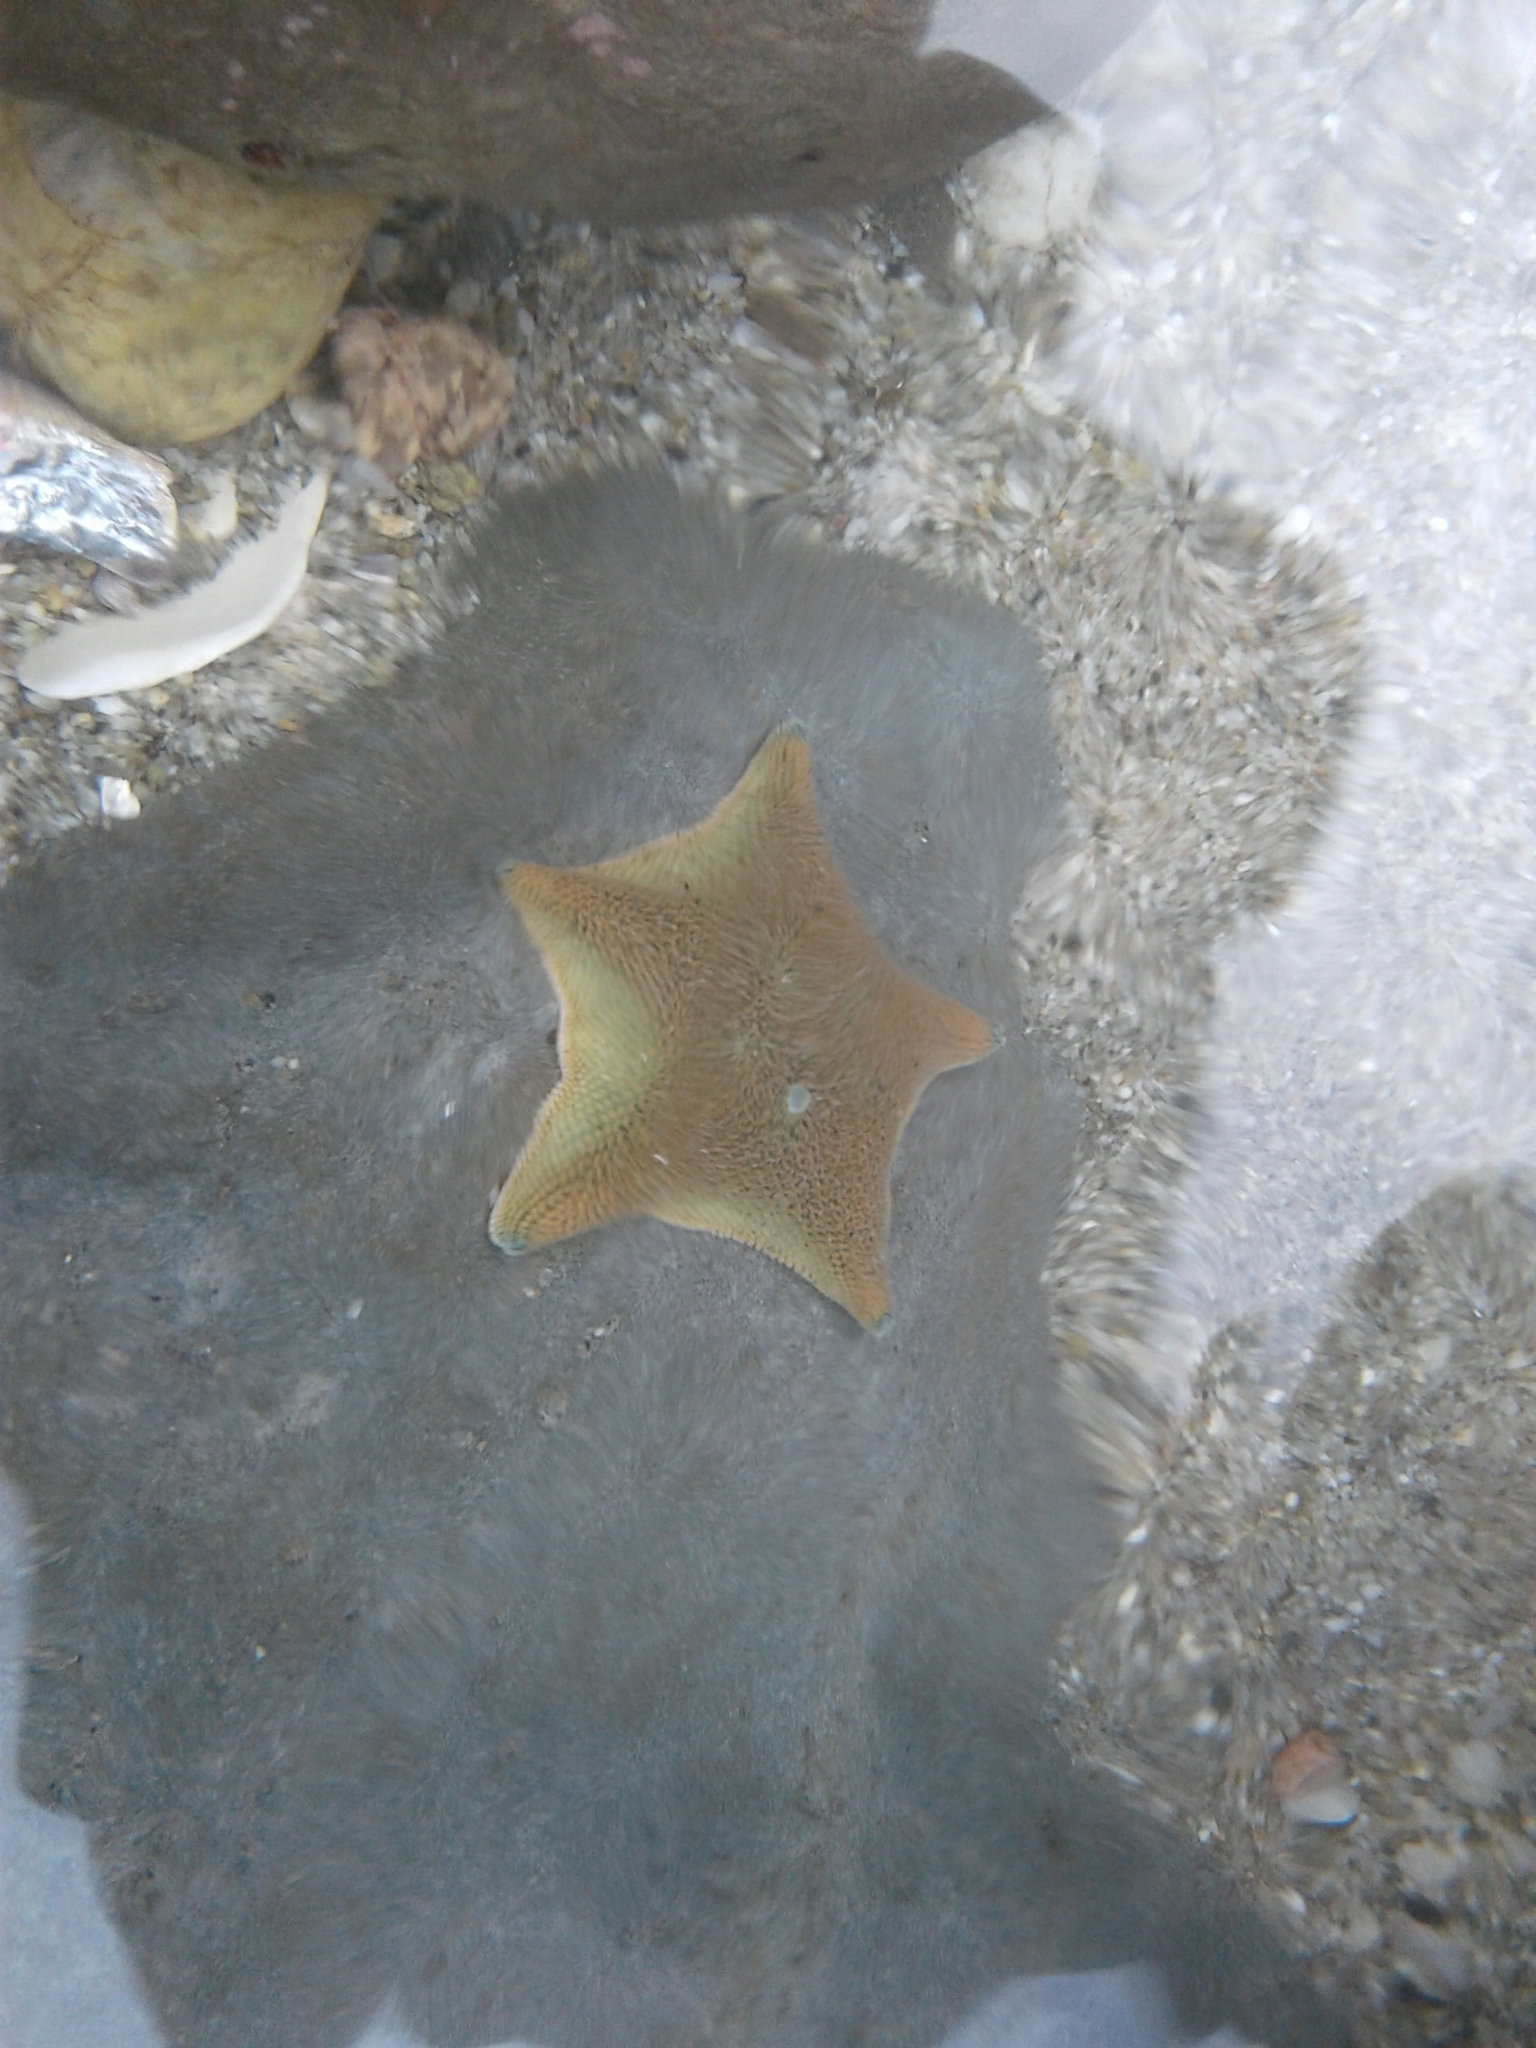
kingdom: Animalia
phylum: Echinodermata
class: Asteroidea
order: Valvatida
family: Asterinidae
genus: Patiriella
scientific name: Patiriella regularis
